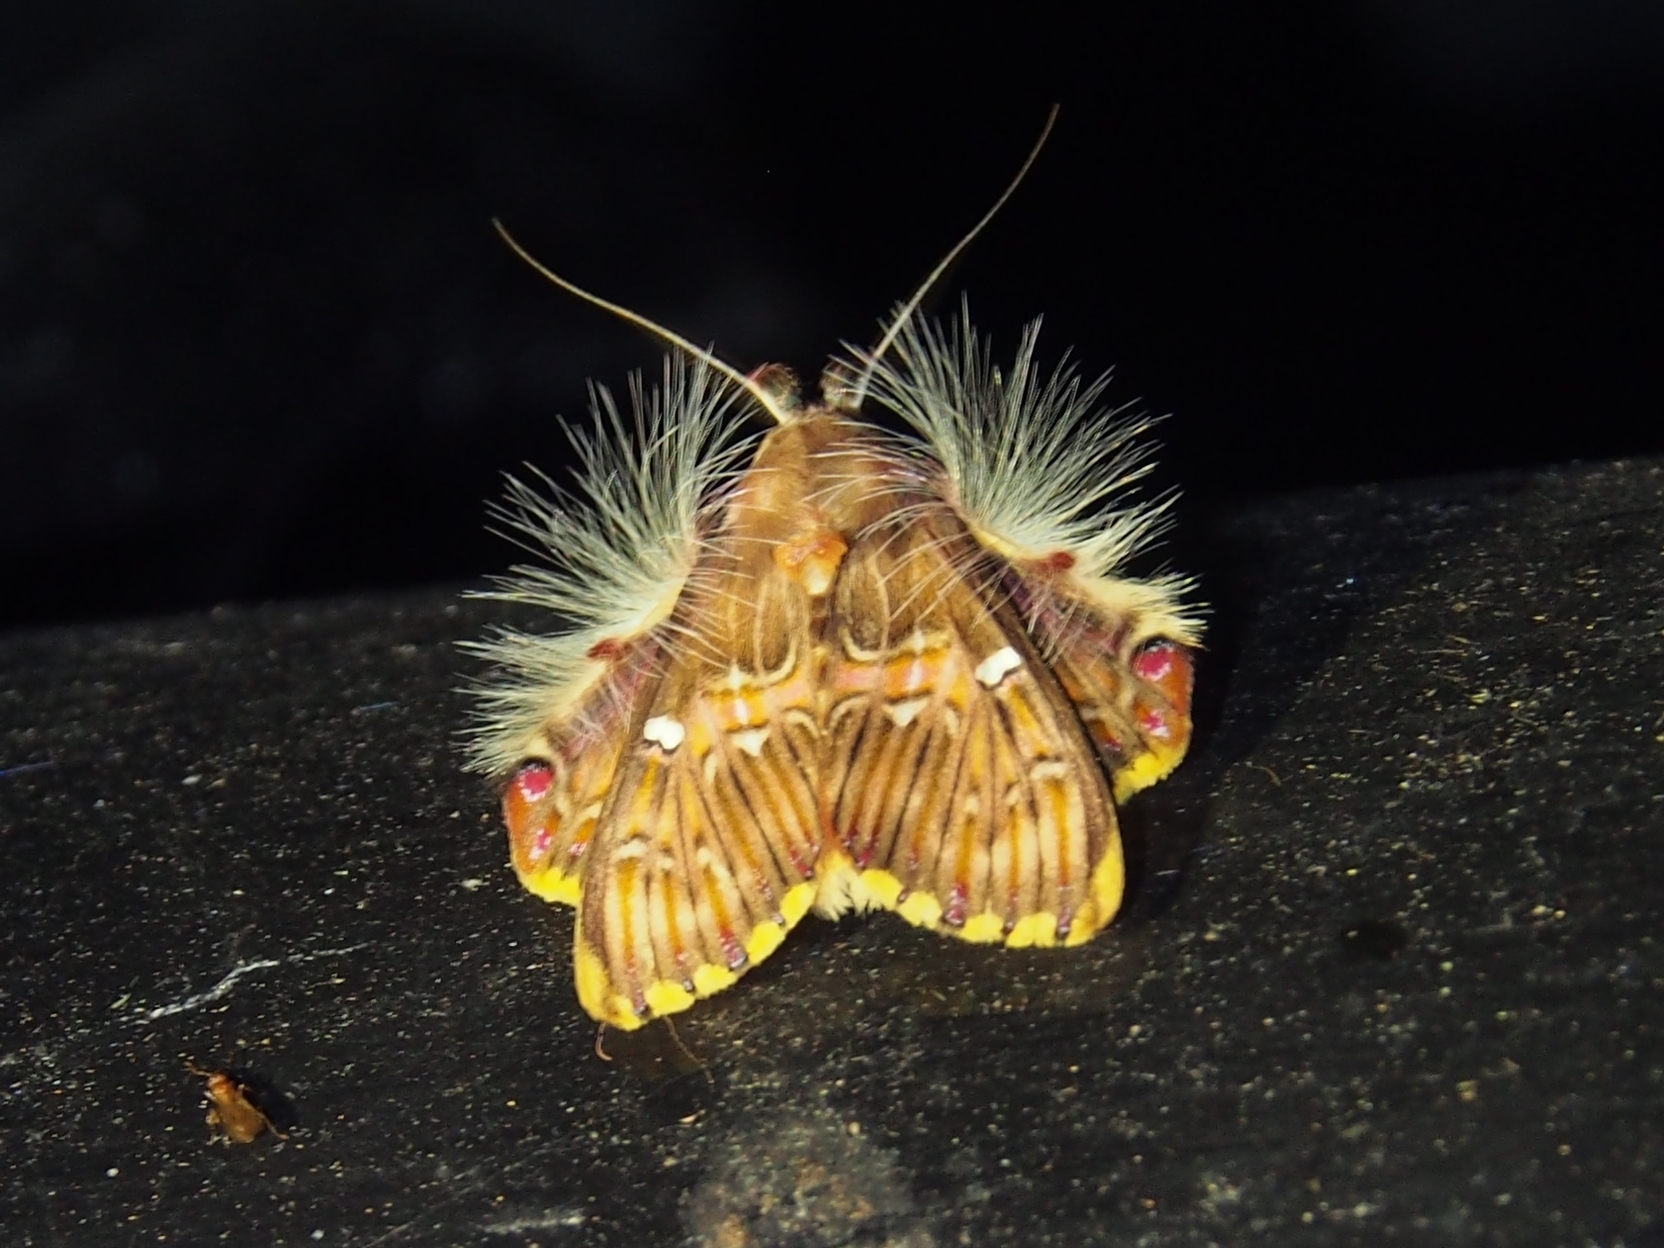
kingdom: Animalia
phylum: Arthropoda
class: Insecta
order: Lepidoptera
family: Erebidae
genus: Sosxetra
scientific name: Sosxetra grata
